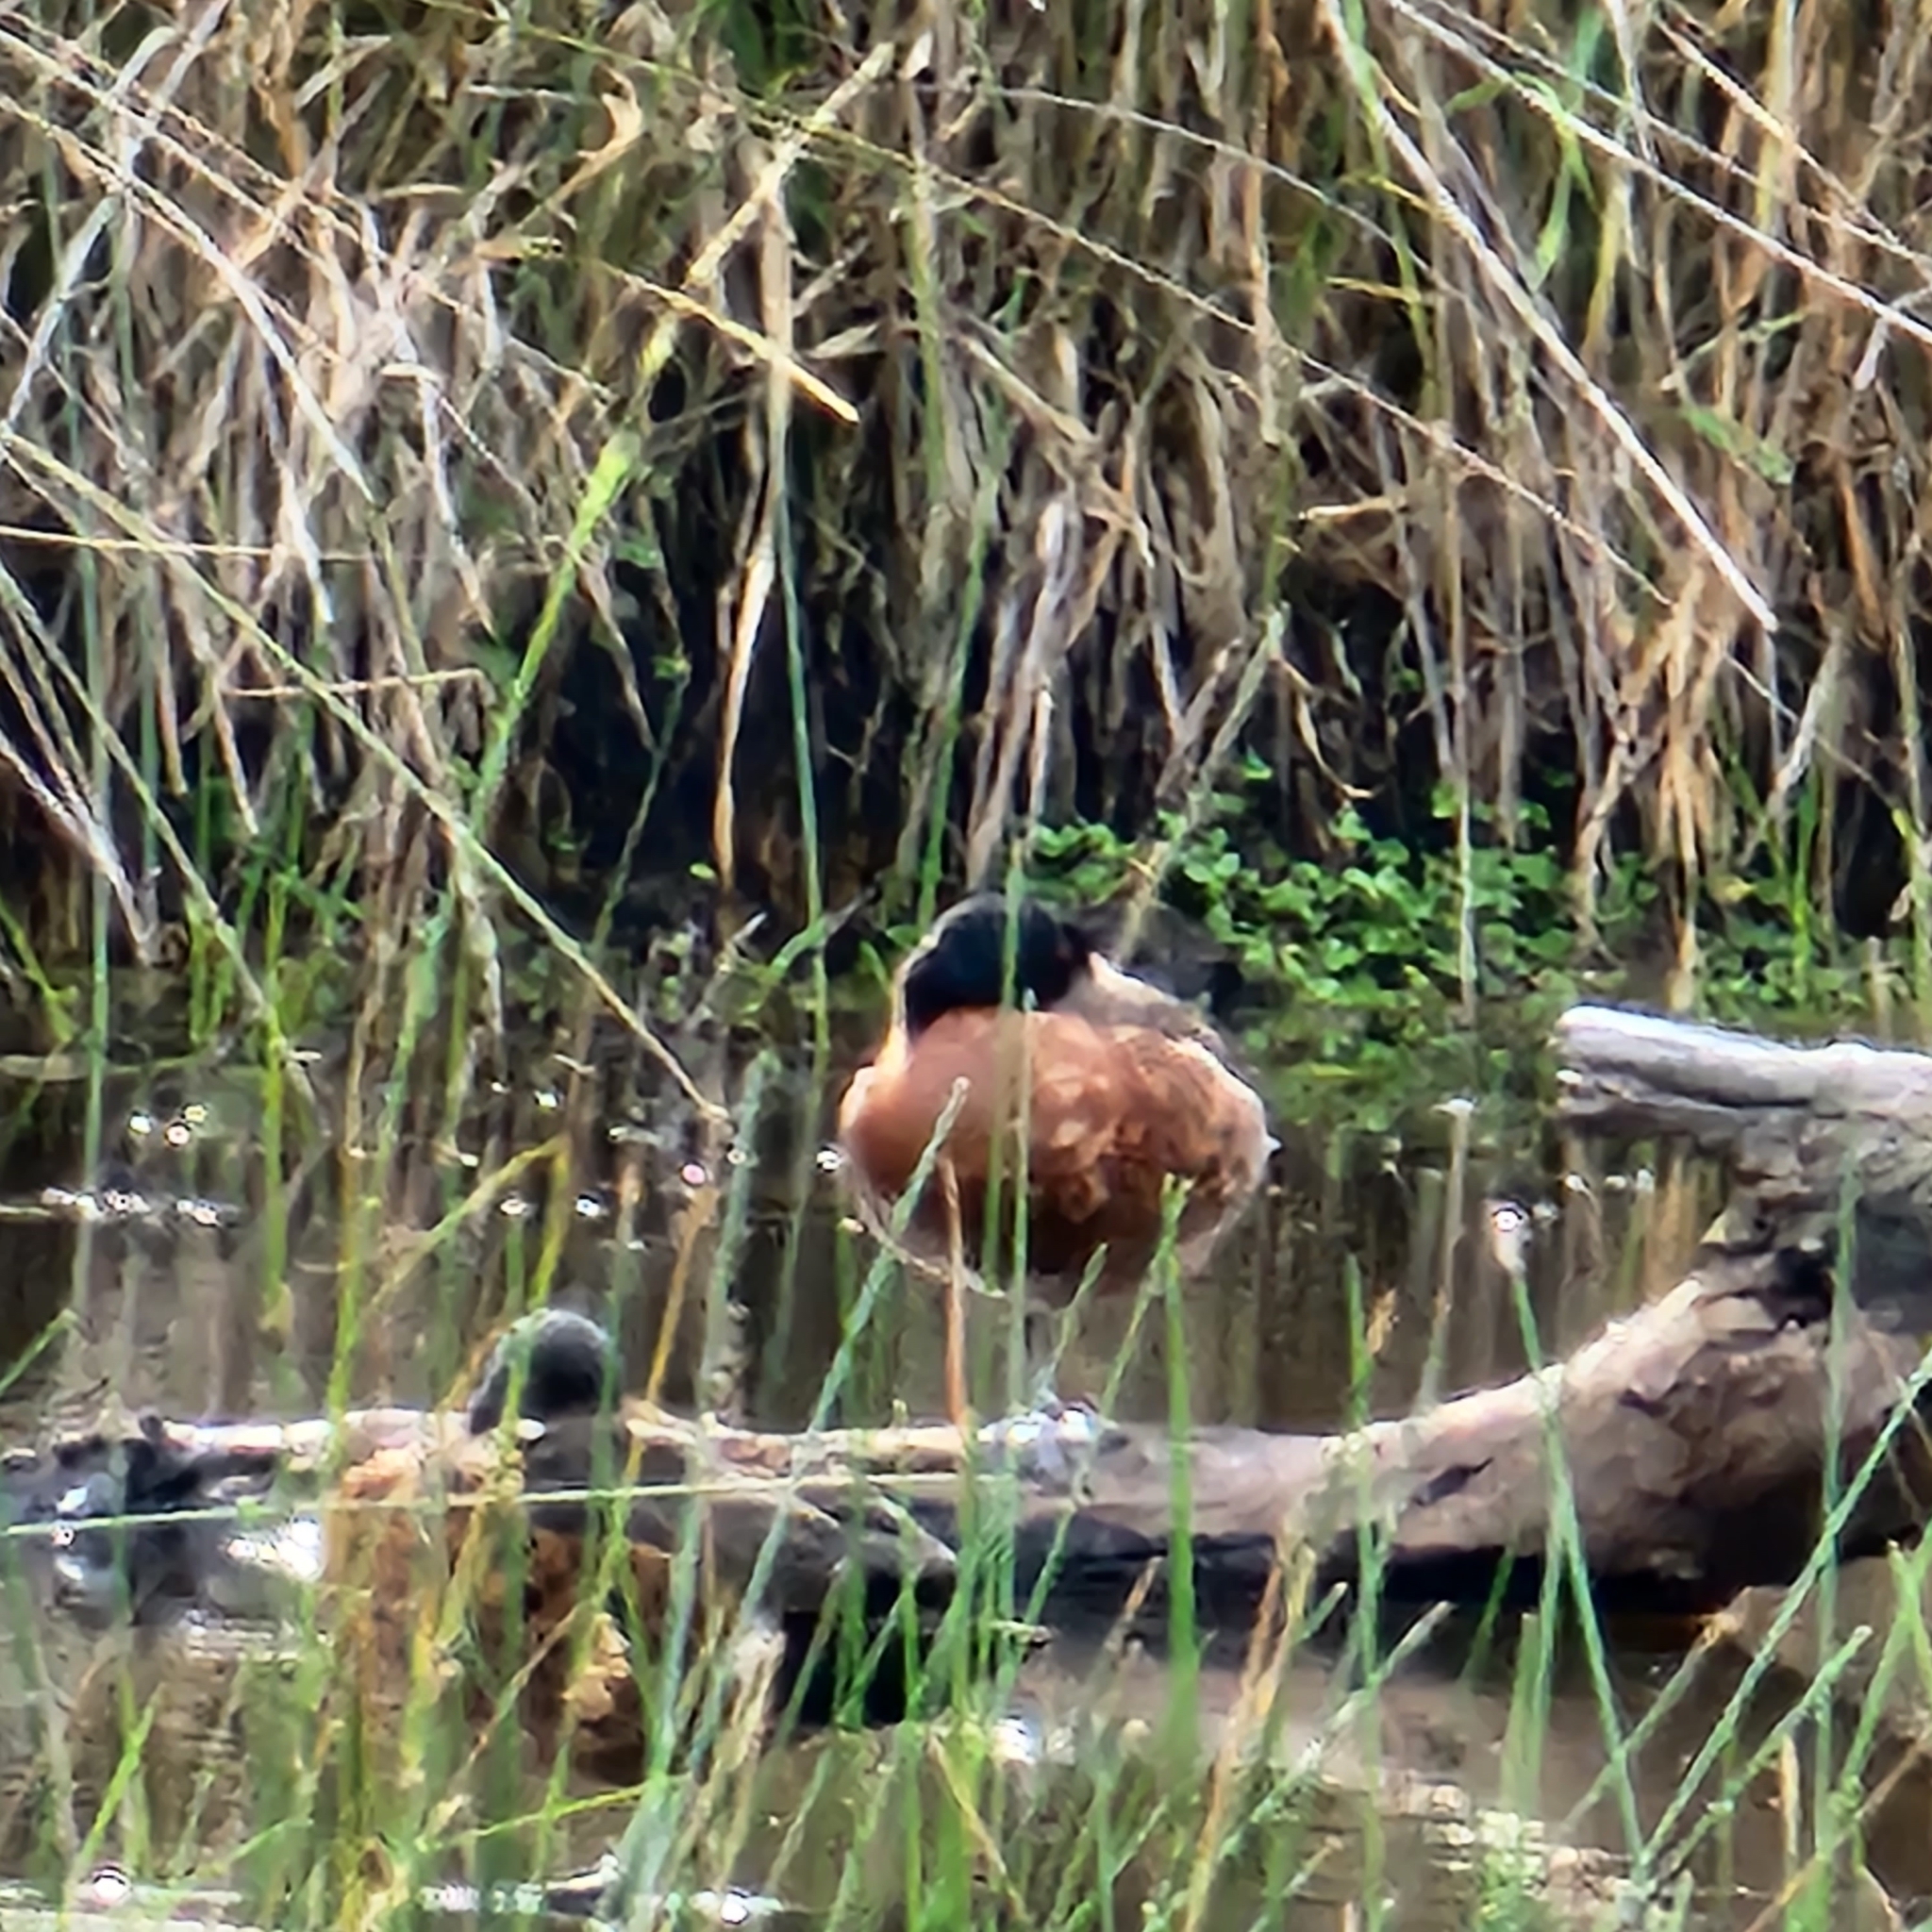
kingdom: Animalia
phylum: Chordata
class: Aves
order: Anseriformes
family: Anatidae
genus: Anas
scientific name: Anas castanea
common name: Chestnut teal
